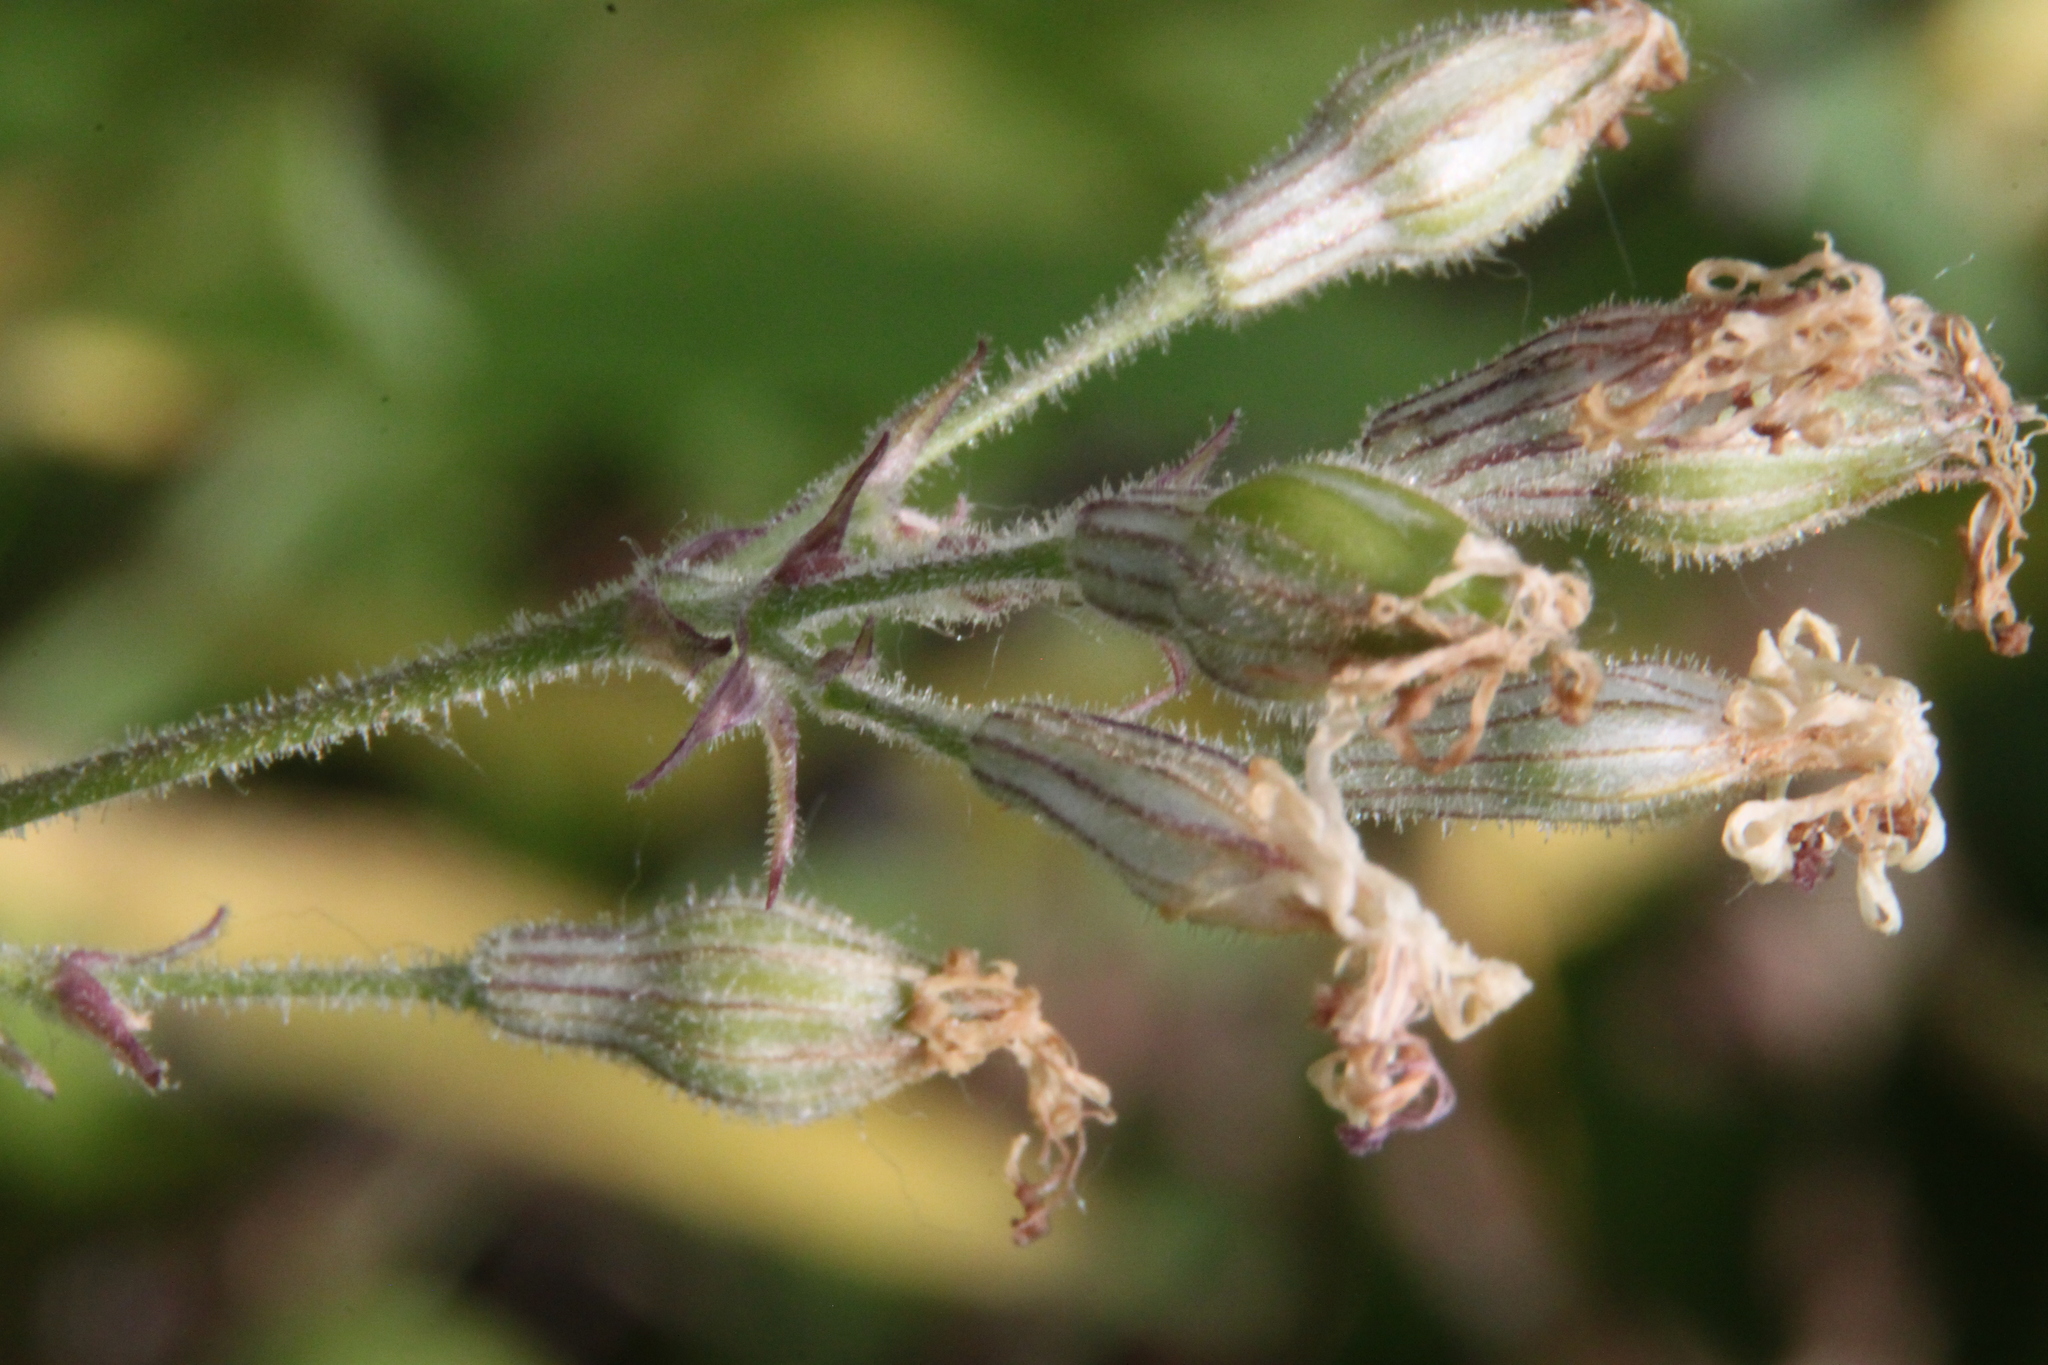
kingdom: Plantae
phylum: Tracheophyta
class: Magnoliopsida
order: Caryophyllales
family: Caryophyllaceae
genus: Silene
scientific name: Silene nutans
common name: Nottingham catchfly
